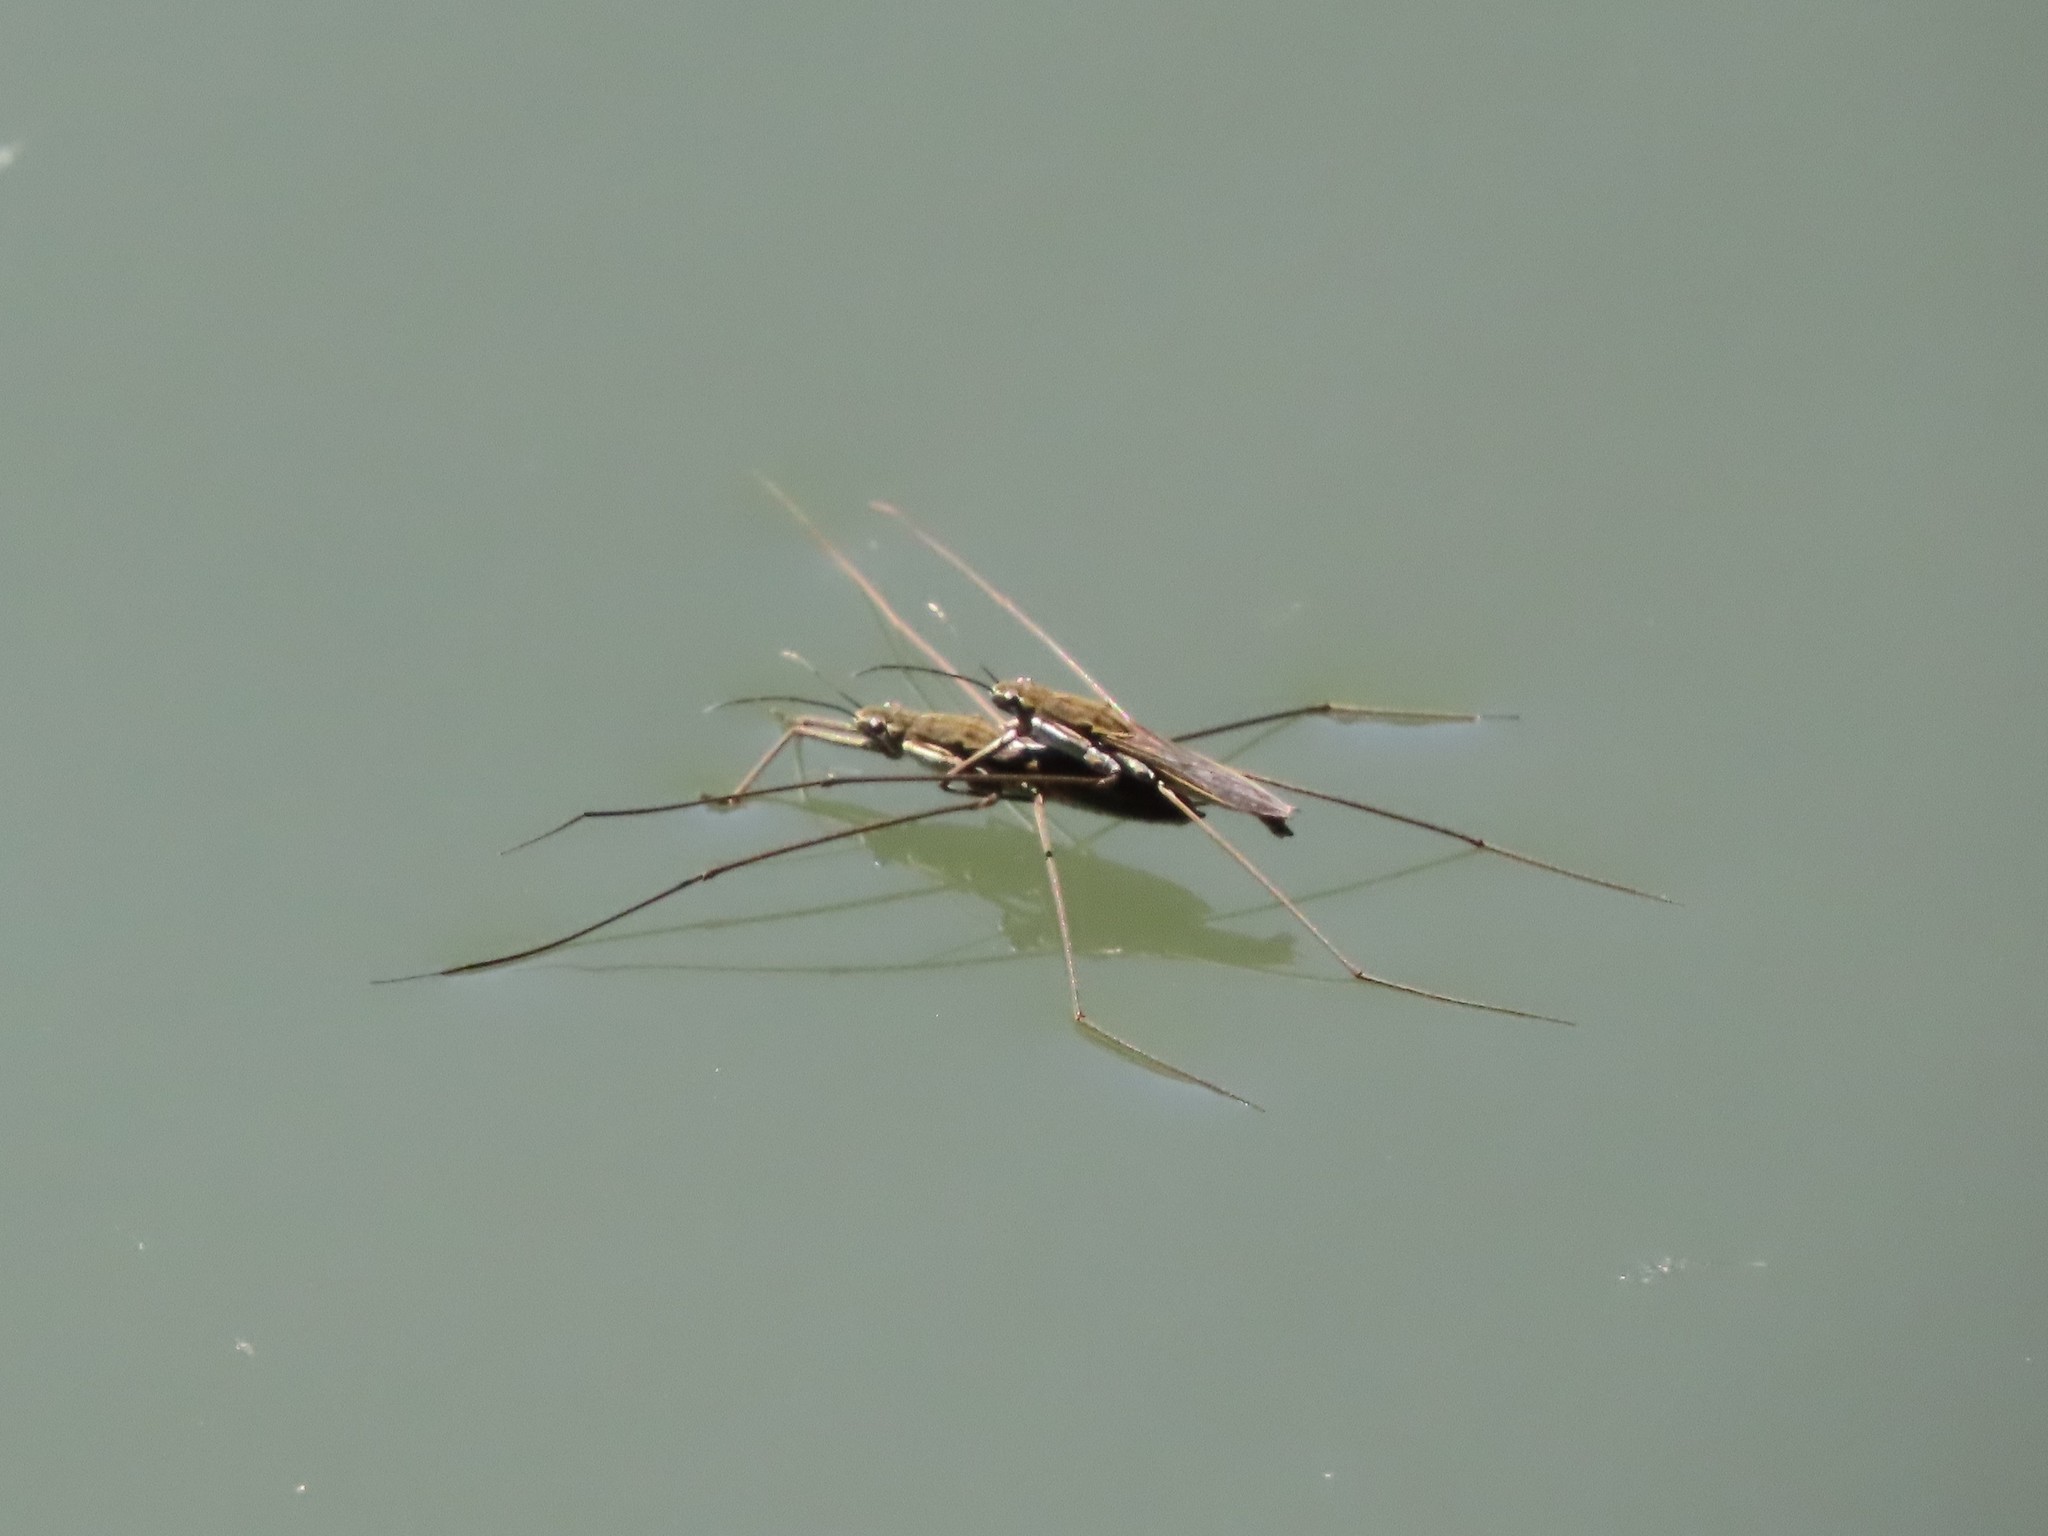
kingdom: Animalia
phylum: Arthropoda
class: Insecta
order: Hemiptera
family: Gerridae
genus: Aquarius
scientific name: Aquarius paludum
